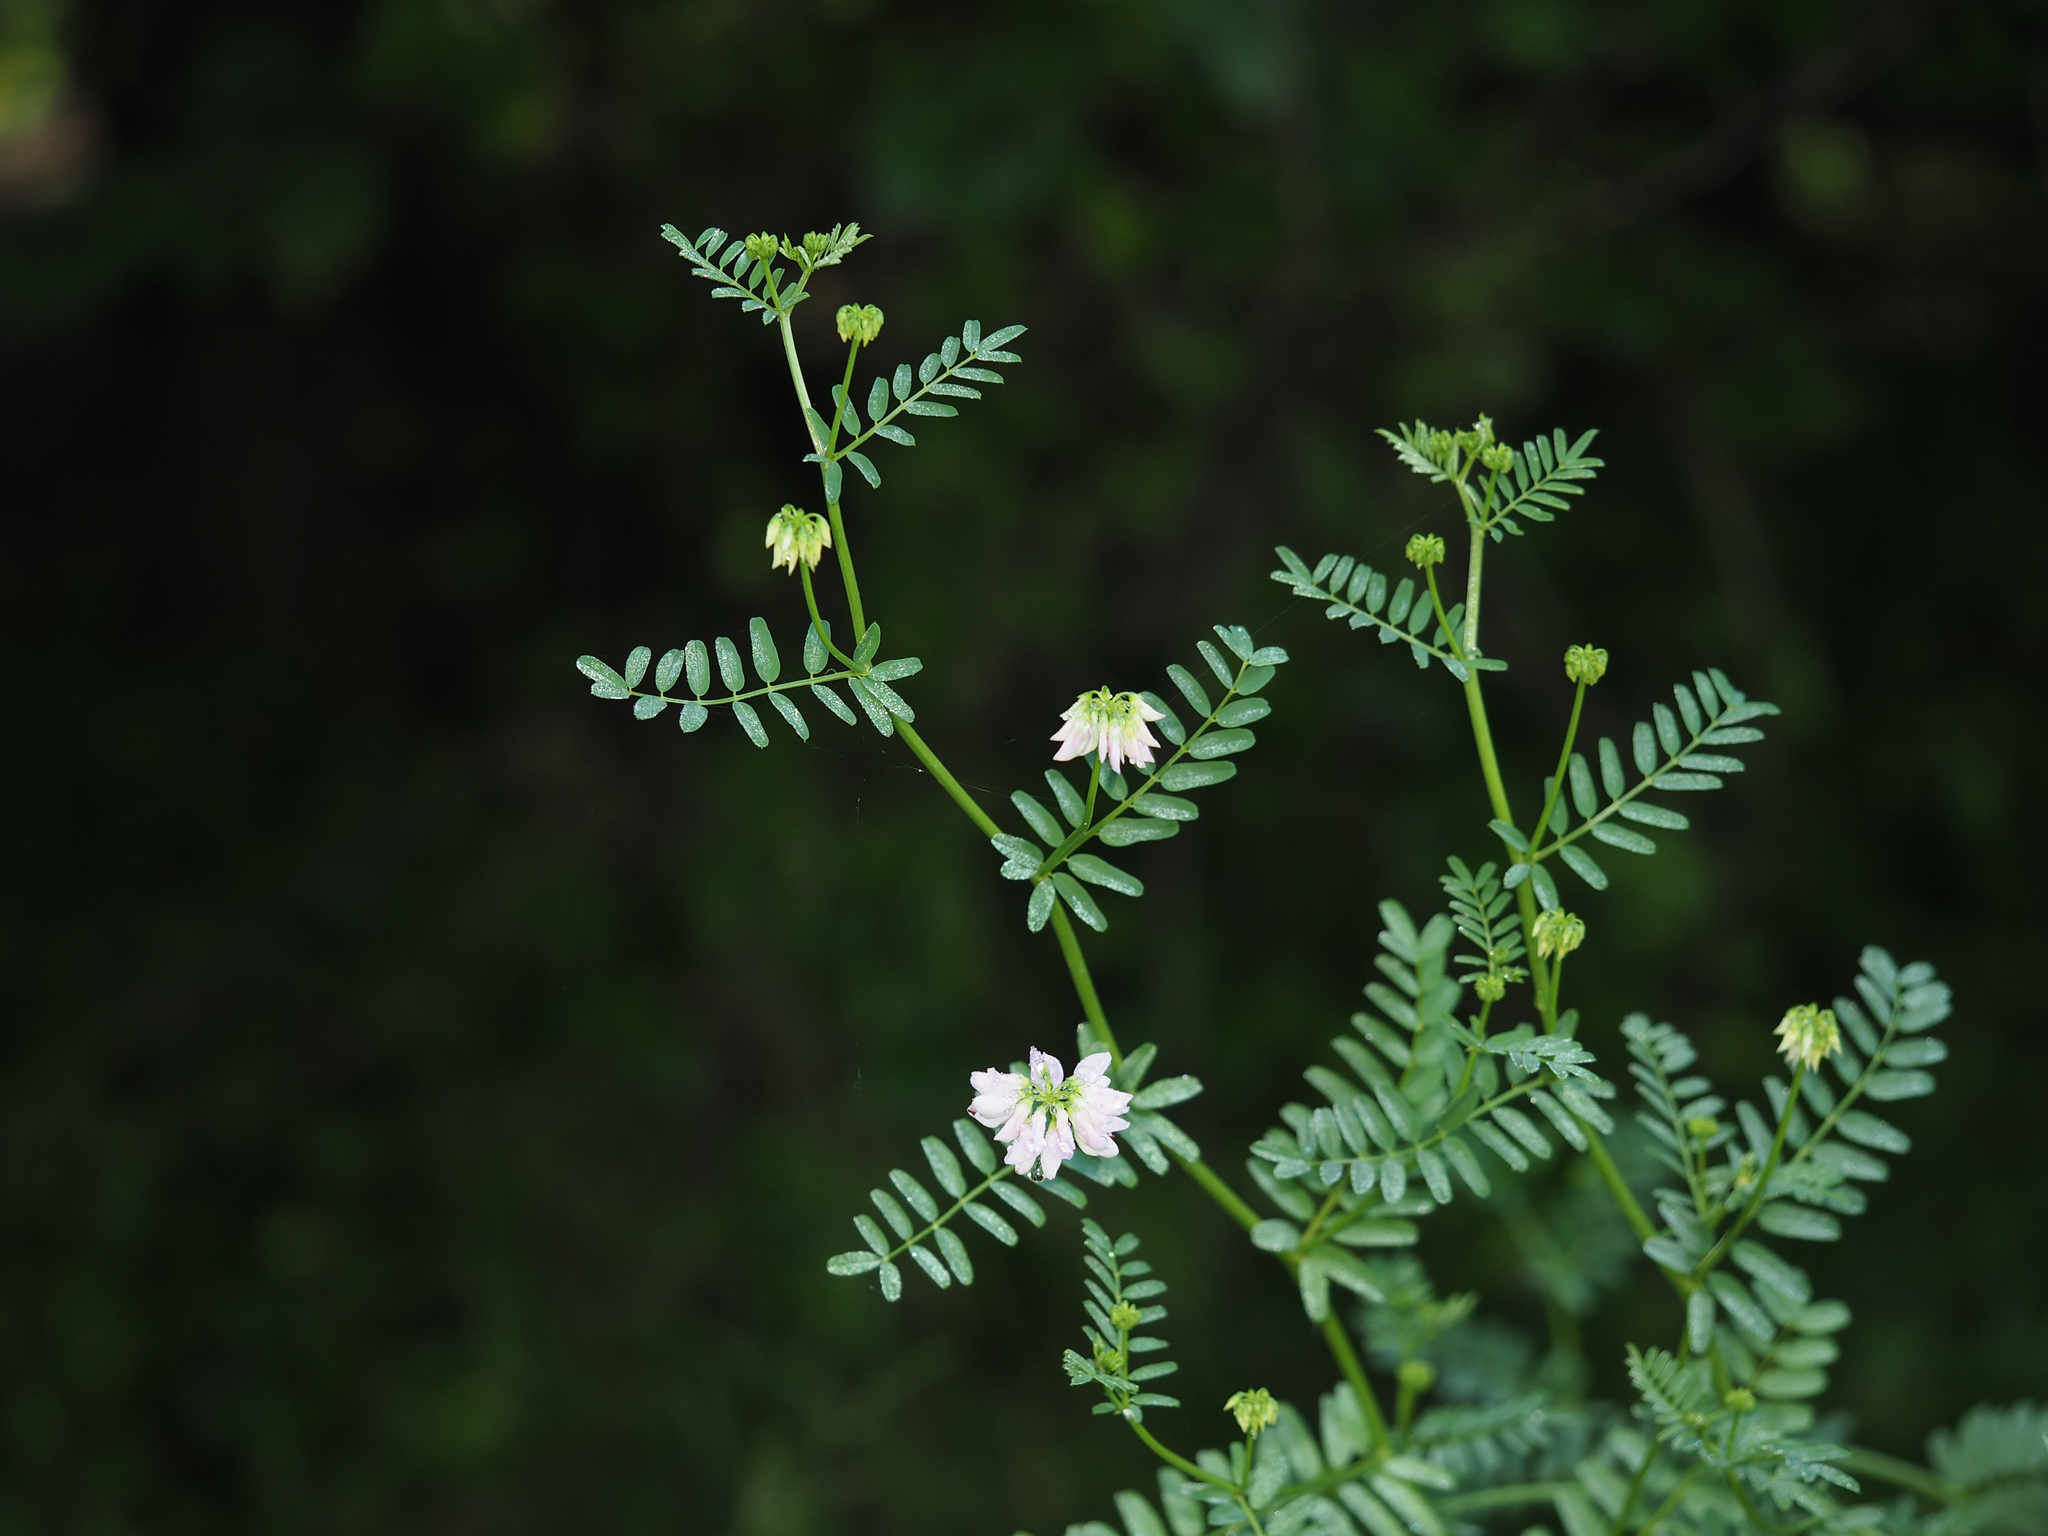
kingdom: Plantae
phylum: Tracheophyta
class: Magnoliopsida
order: Fabales
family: Fabaceae
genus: Coronilla
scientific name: Coronilla varia
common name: Crownvetch
